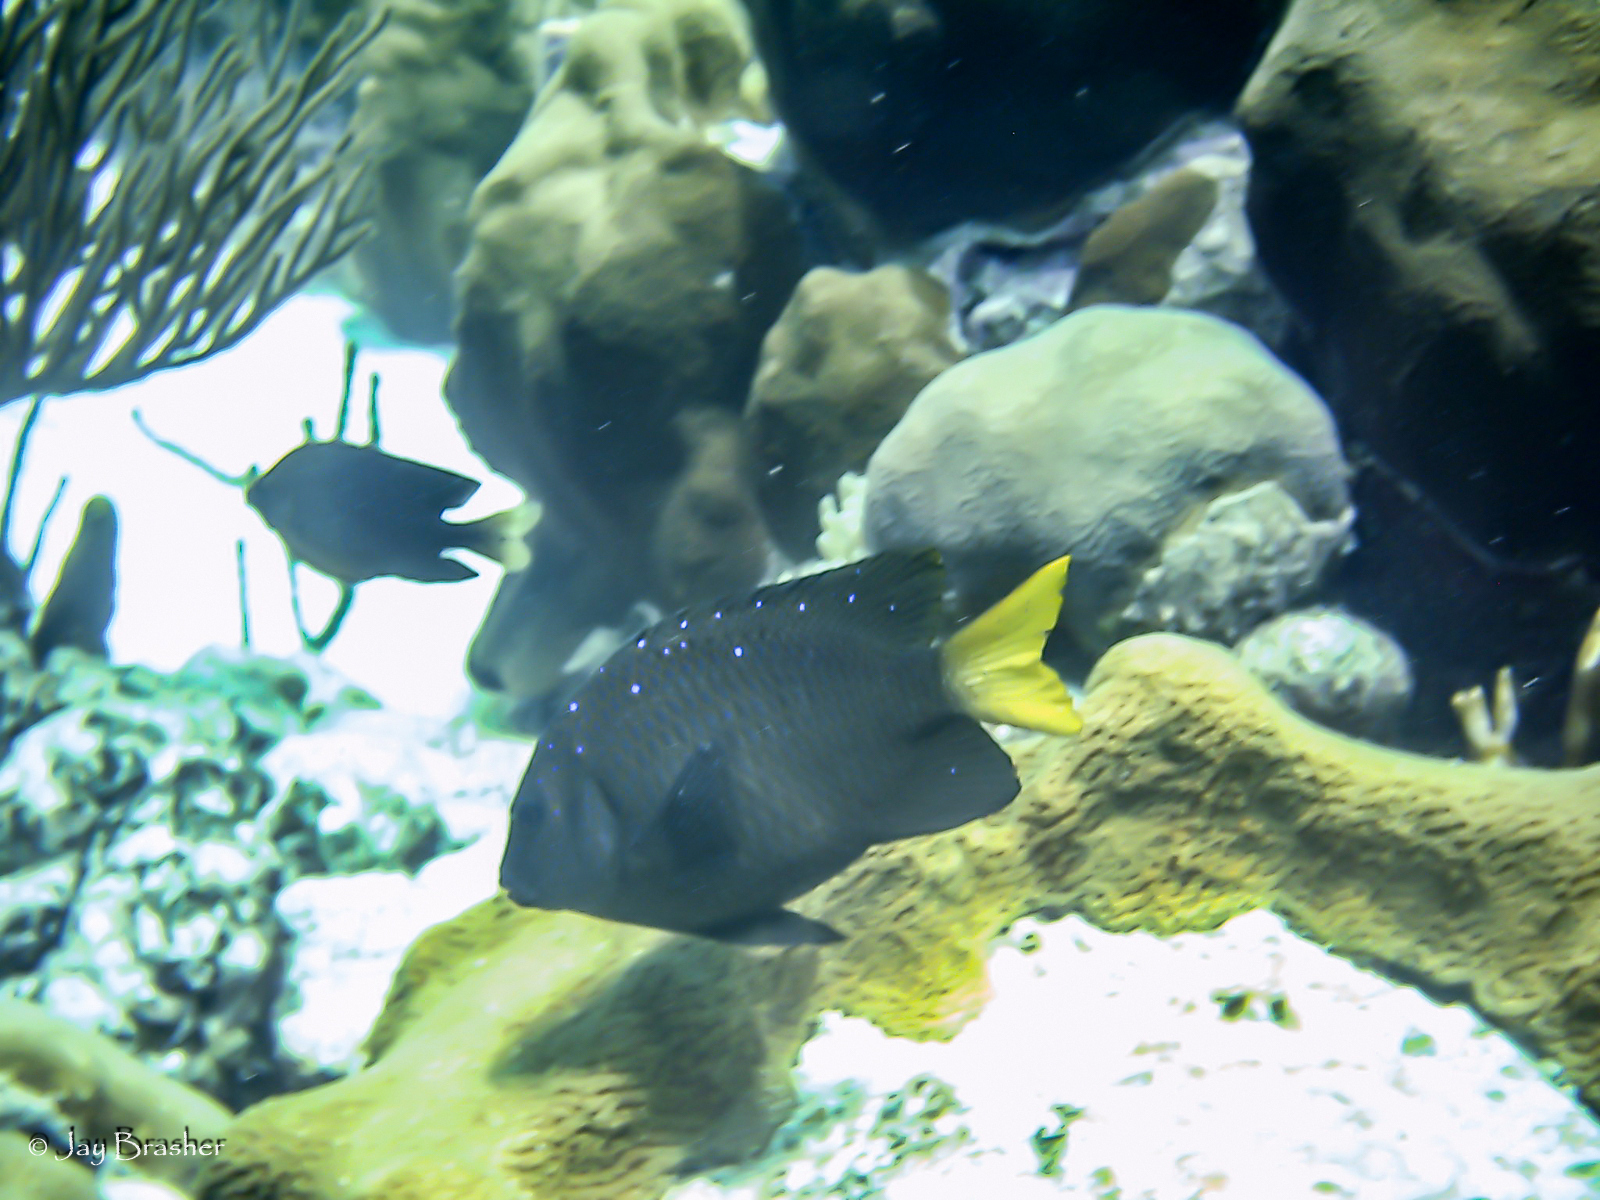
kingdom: Animalia
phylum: Chordata
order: Perciformes
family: Pomacentridae
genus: Microspathodon
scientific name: Microspathodon chrysurus
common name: Yellowtail damselfish
